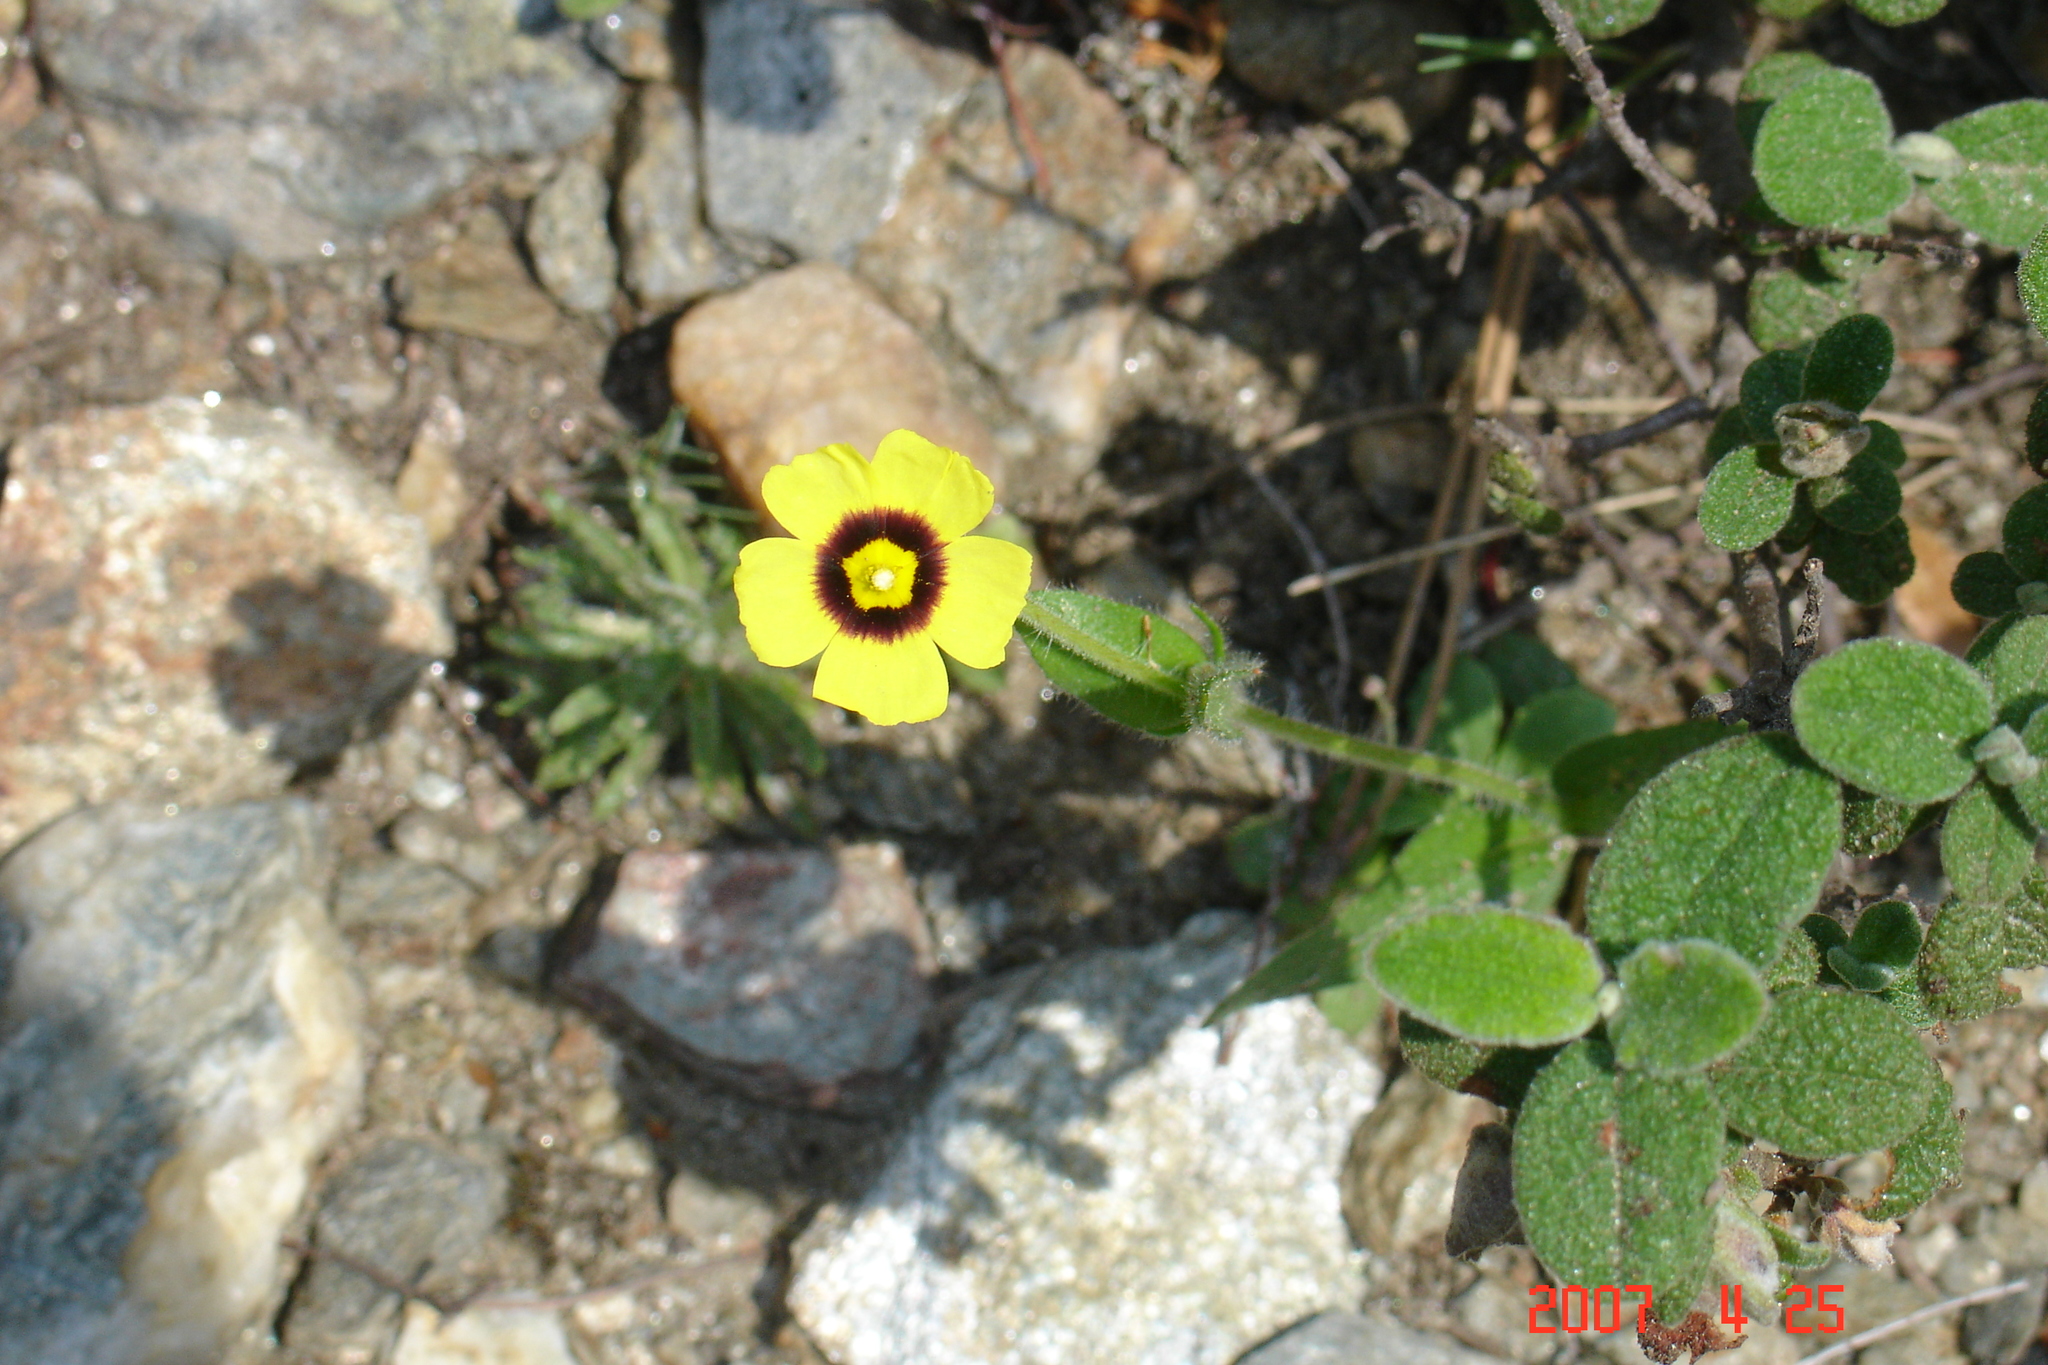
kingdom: Plantae
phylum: Tracheophyta
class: Magnoliopsida
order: Malvales
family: Cistaceae
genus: Tuberaria
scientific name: Tuberaria guttata
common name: Spotted rock-rose
